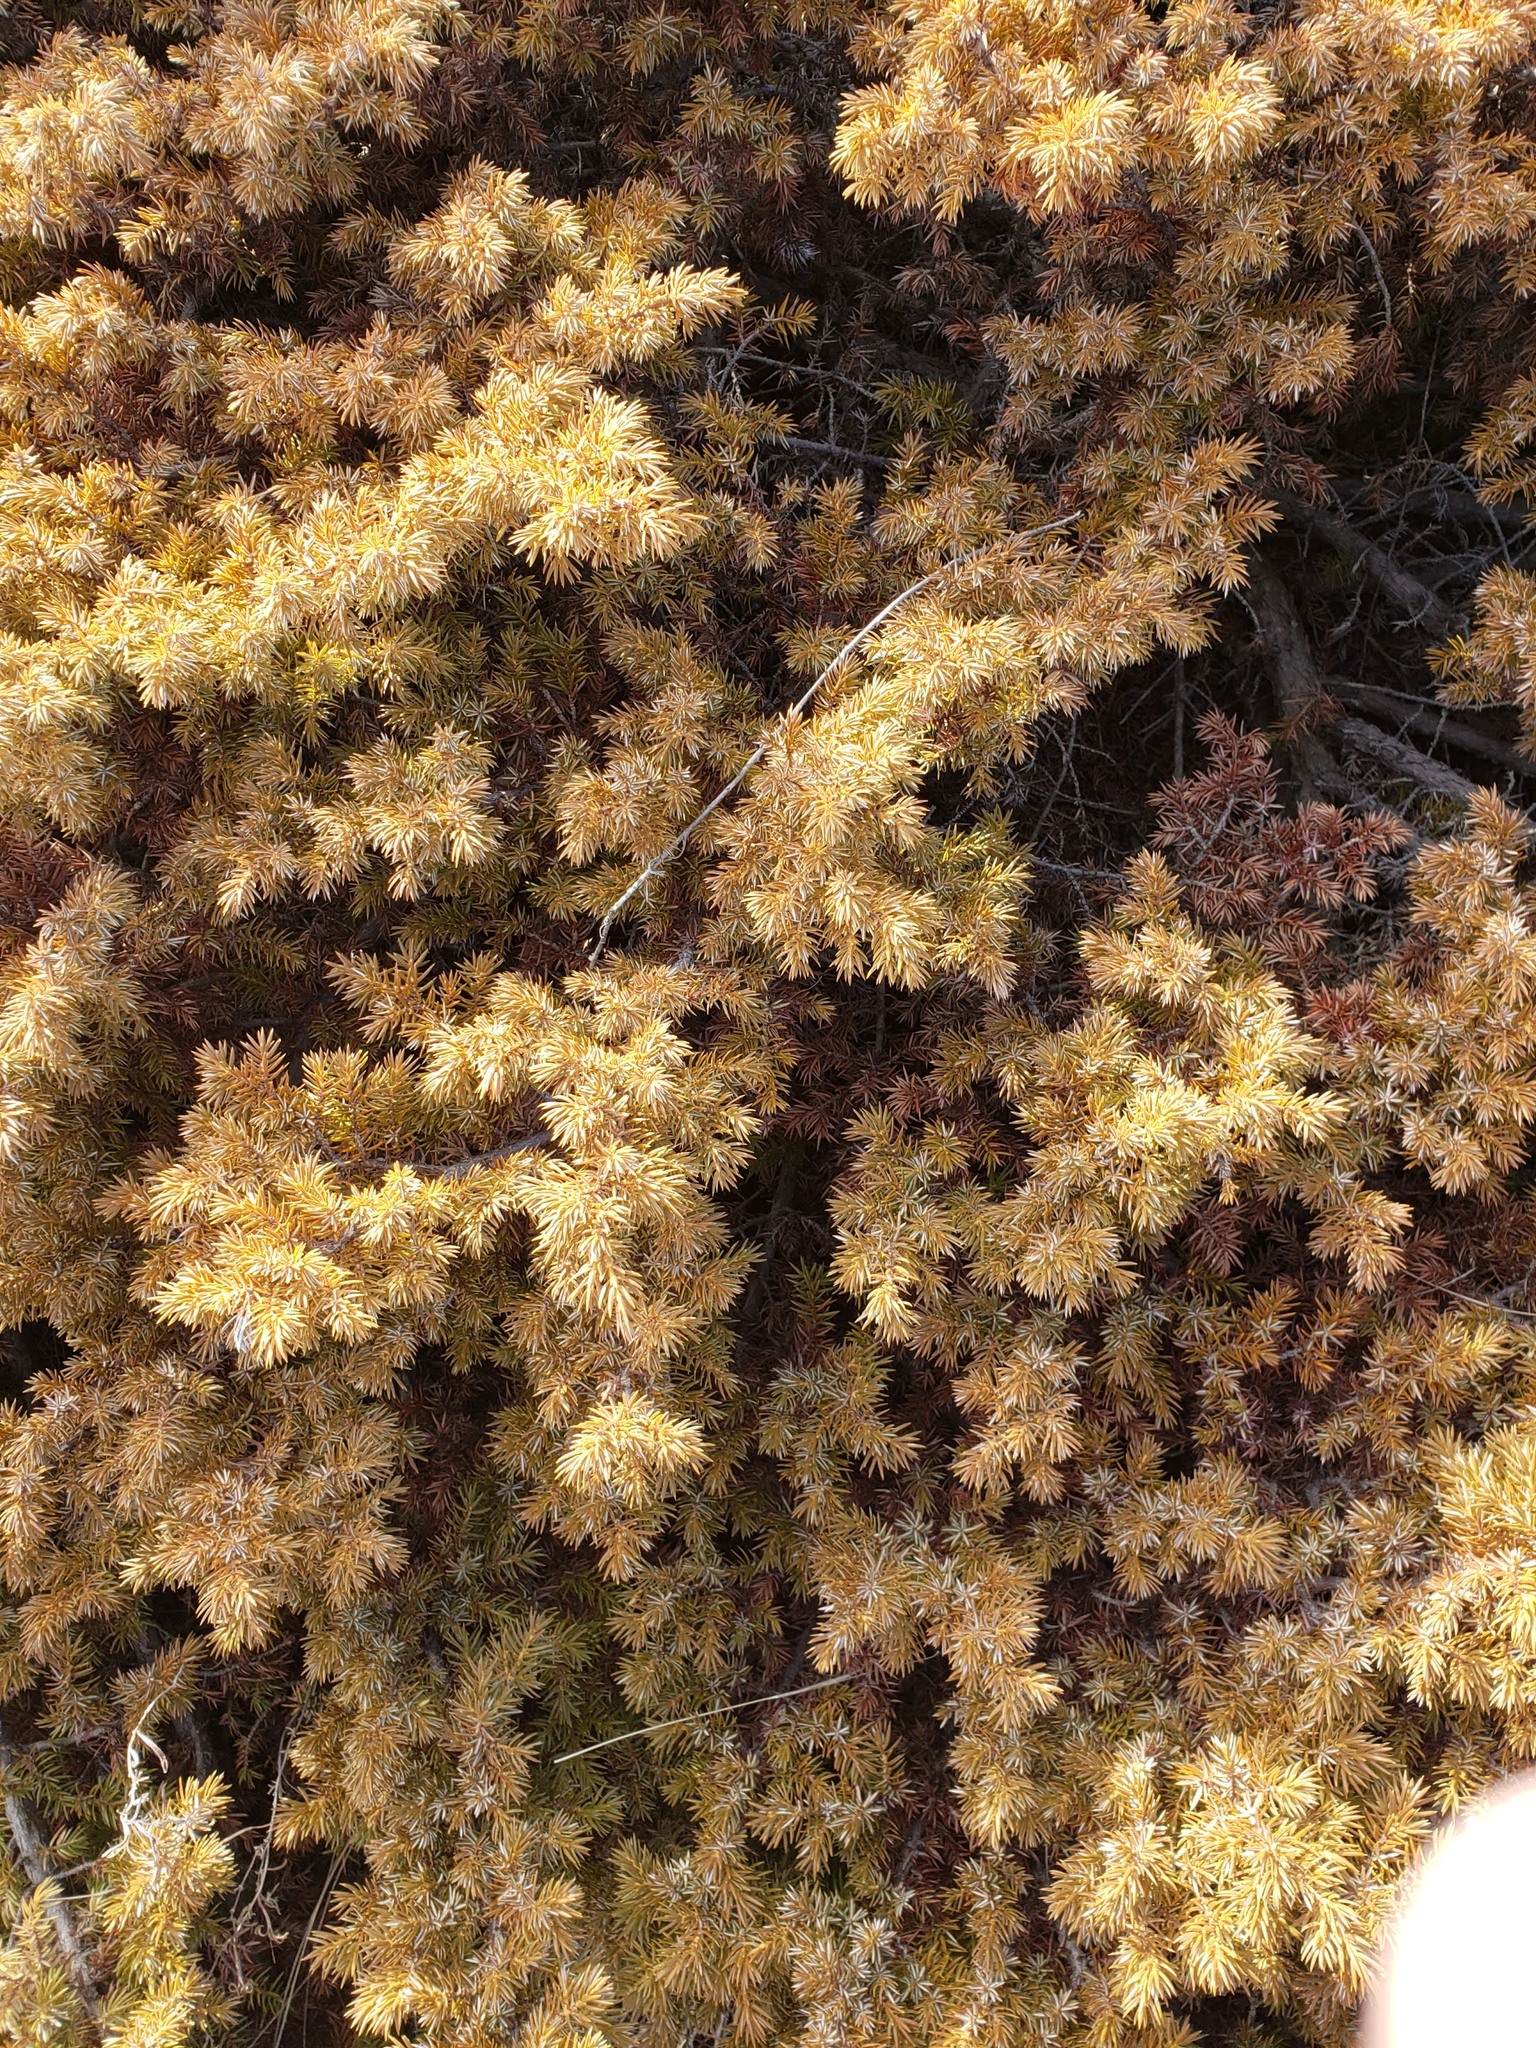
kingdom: Plantae
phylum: Tracheophyta
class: Pinopsida
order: Pinales
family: Cupressaceae
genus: Juniperus
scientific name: Juniperus communis
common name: Common juniper
